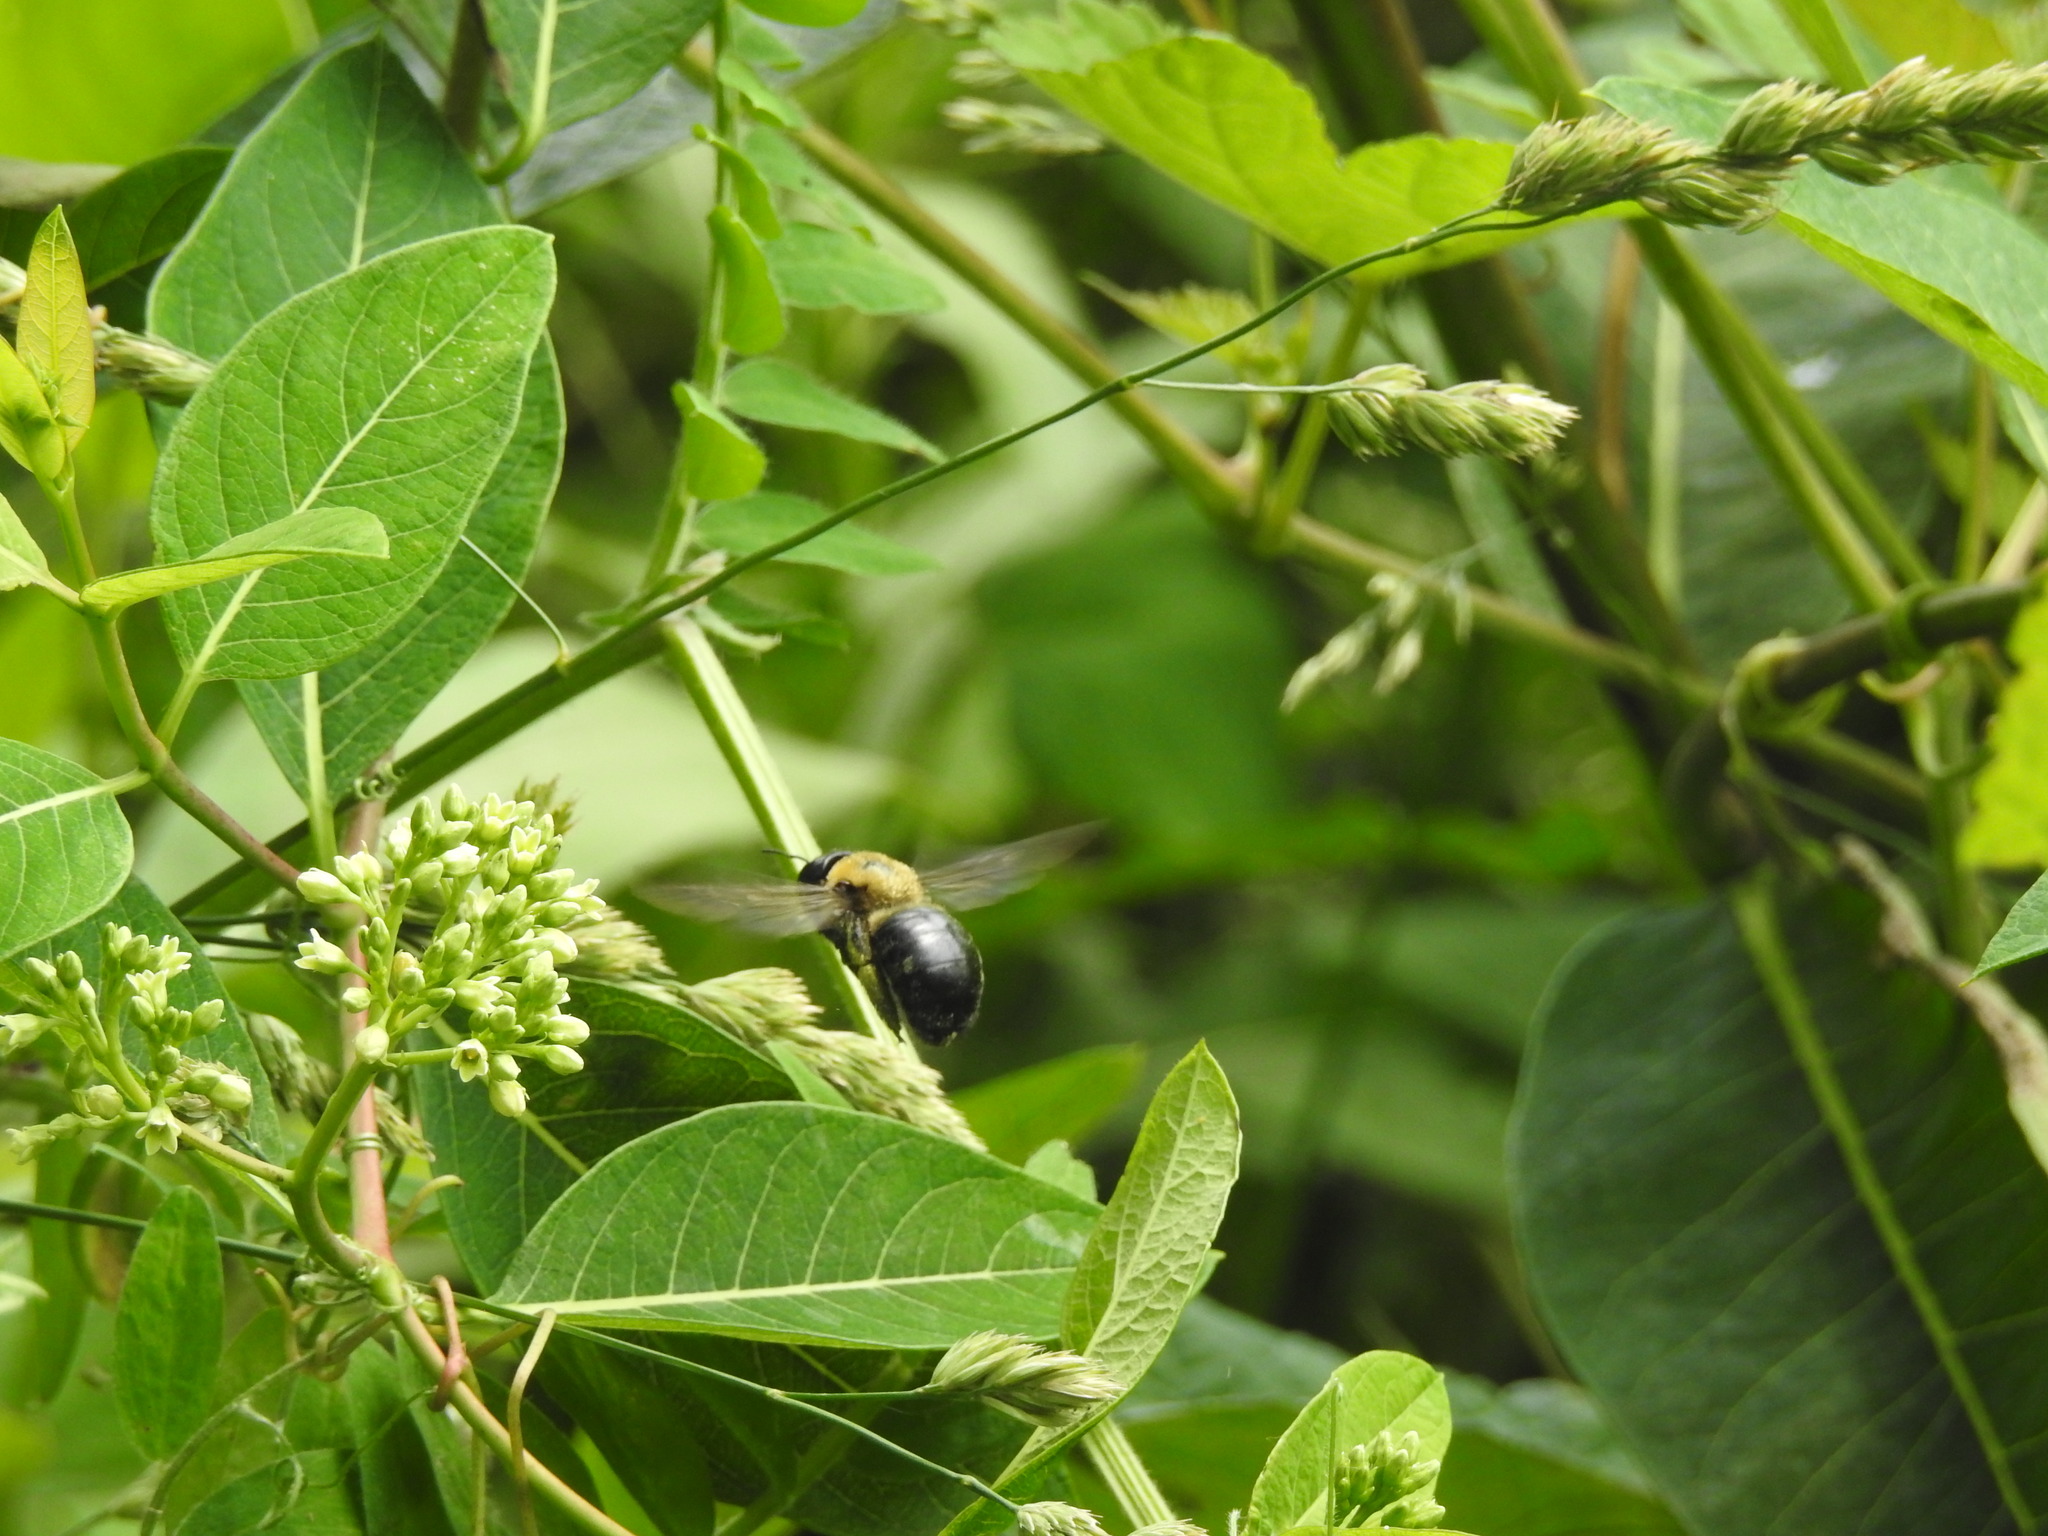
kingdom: Animalia
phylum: Arthropoda
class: Insecta
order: Hymenoptera
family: Apidae
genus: Xylocopa
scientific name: Xylocopa virginica
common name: Carpenter bee
